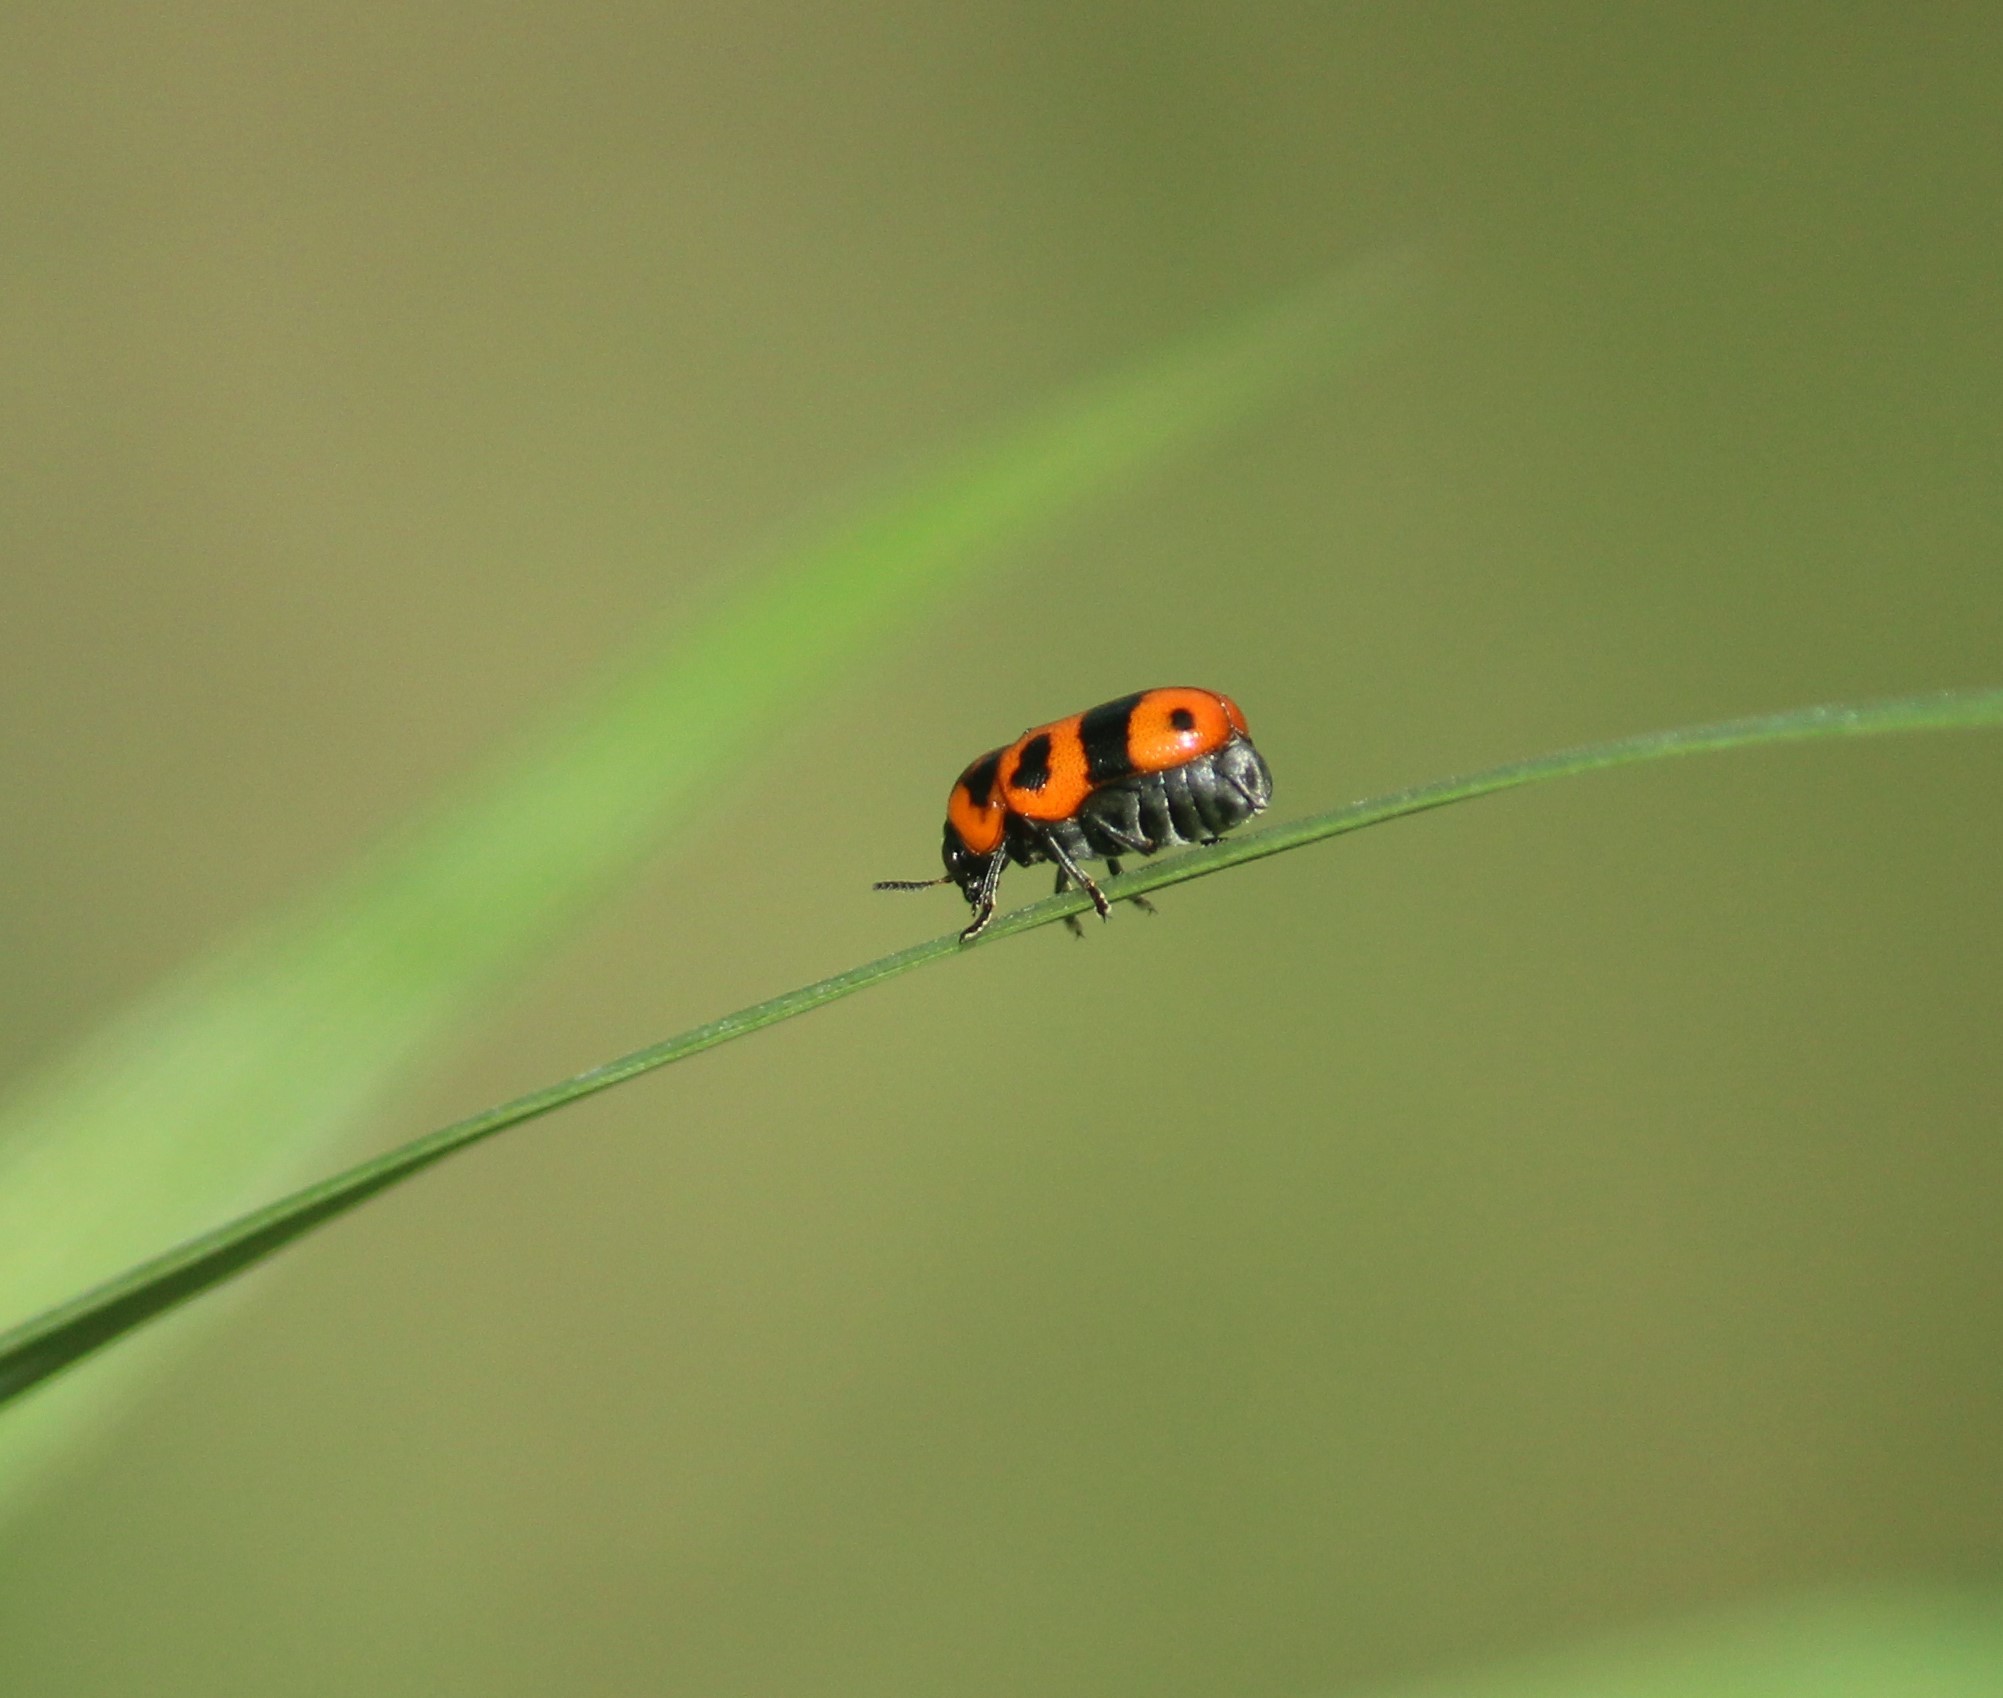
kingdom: Animalia
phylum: Arthropoda
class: Insecta
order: Coleoptera
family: Chrysomelidae
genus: Diapromorpha
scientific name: Diapromorpha
